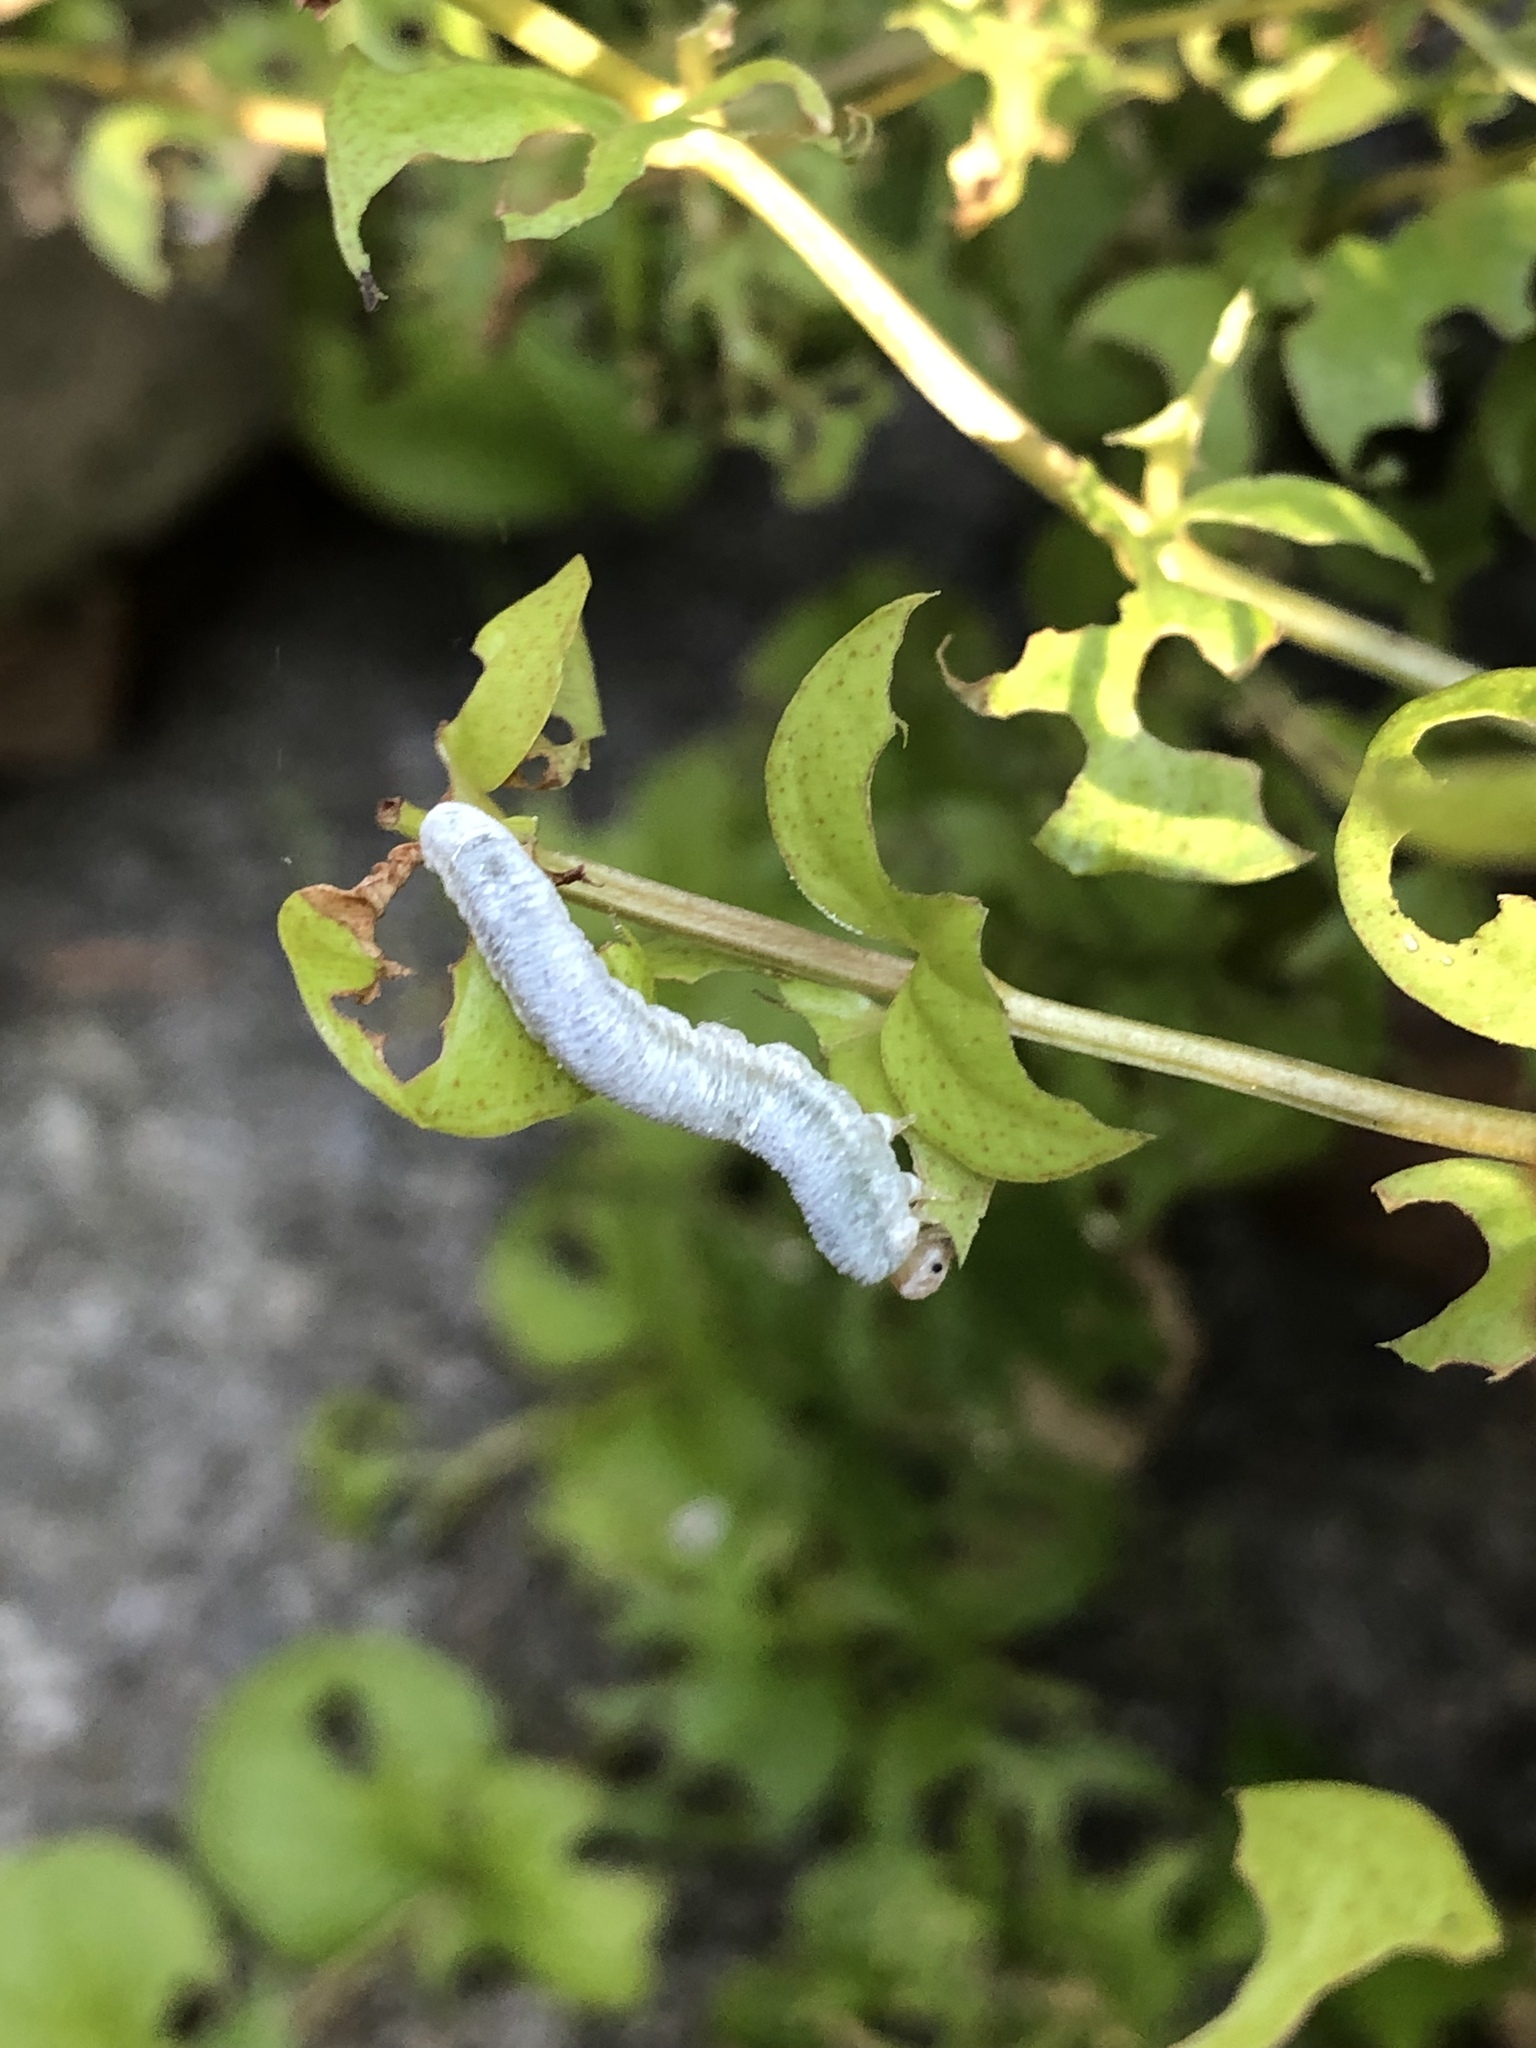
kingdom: Animalia
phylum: Arthropoda
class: Insecta
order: Hymenoptera
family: Tenthredinidae
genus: Monostegia
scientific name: Monostegia abdominalis
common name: Tenthredid wasp
